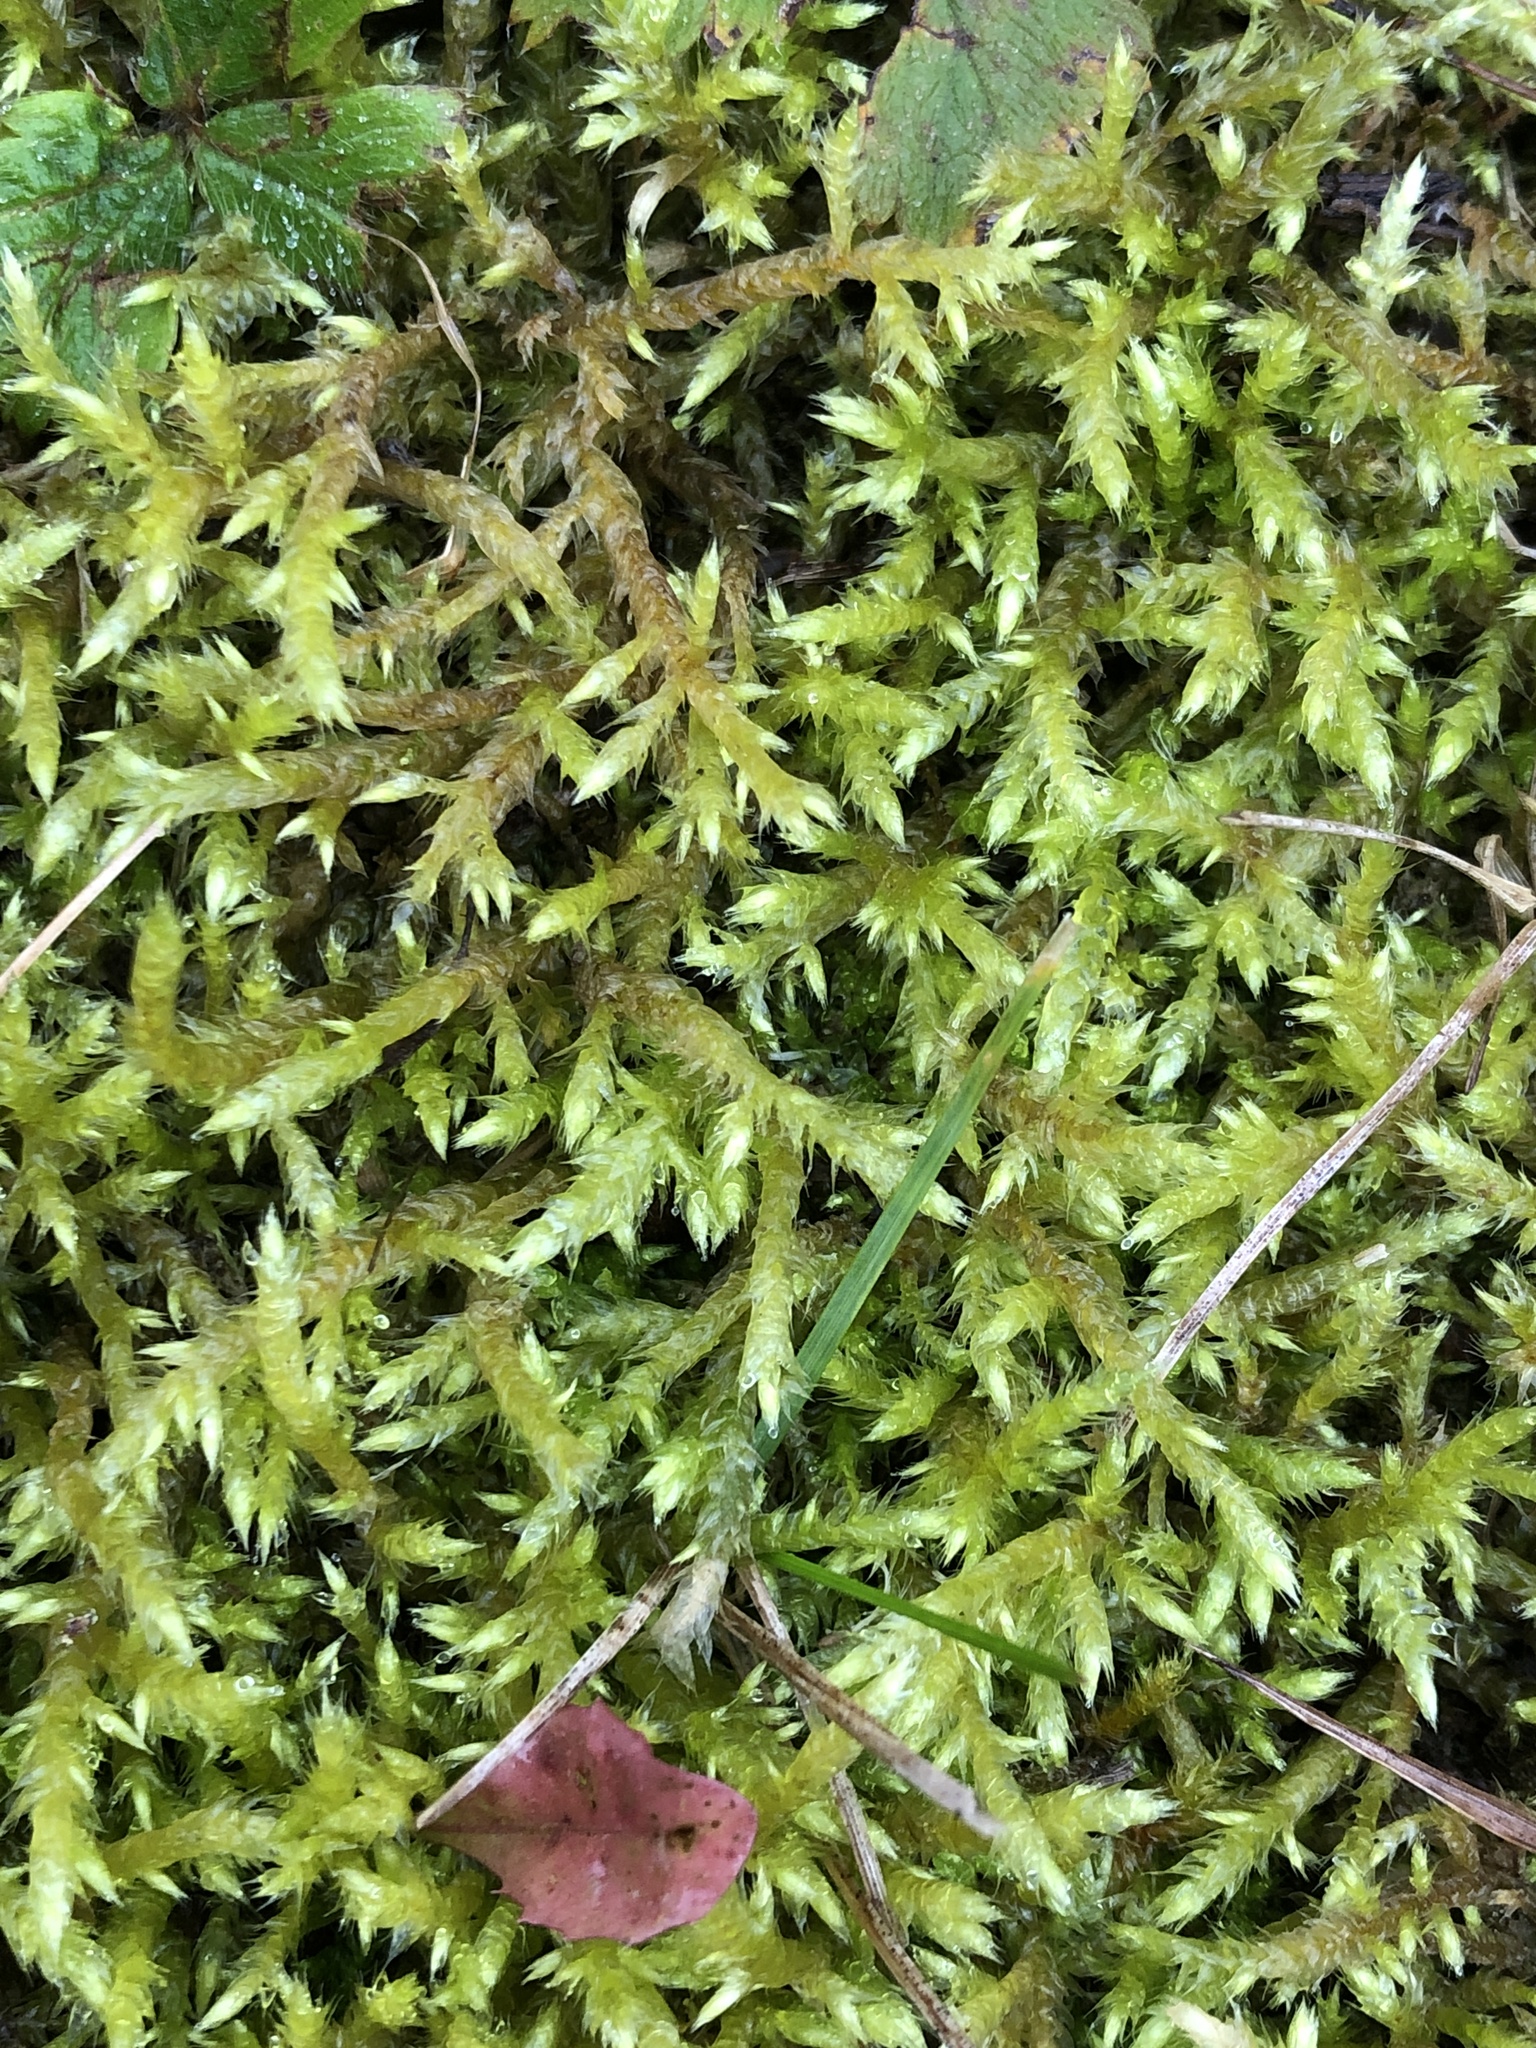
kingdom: Plantae
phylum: Bryophyta
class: Bryopsida
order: Hypnales
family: Amblystegiaceae
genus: Cratoneuron
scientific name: Cratoneuron filicinum
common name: Fern-leaved hook moss
